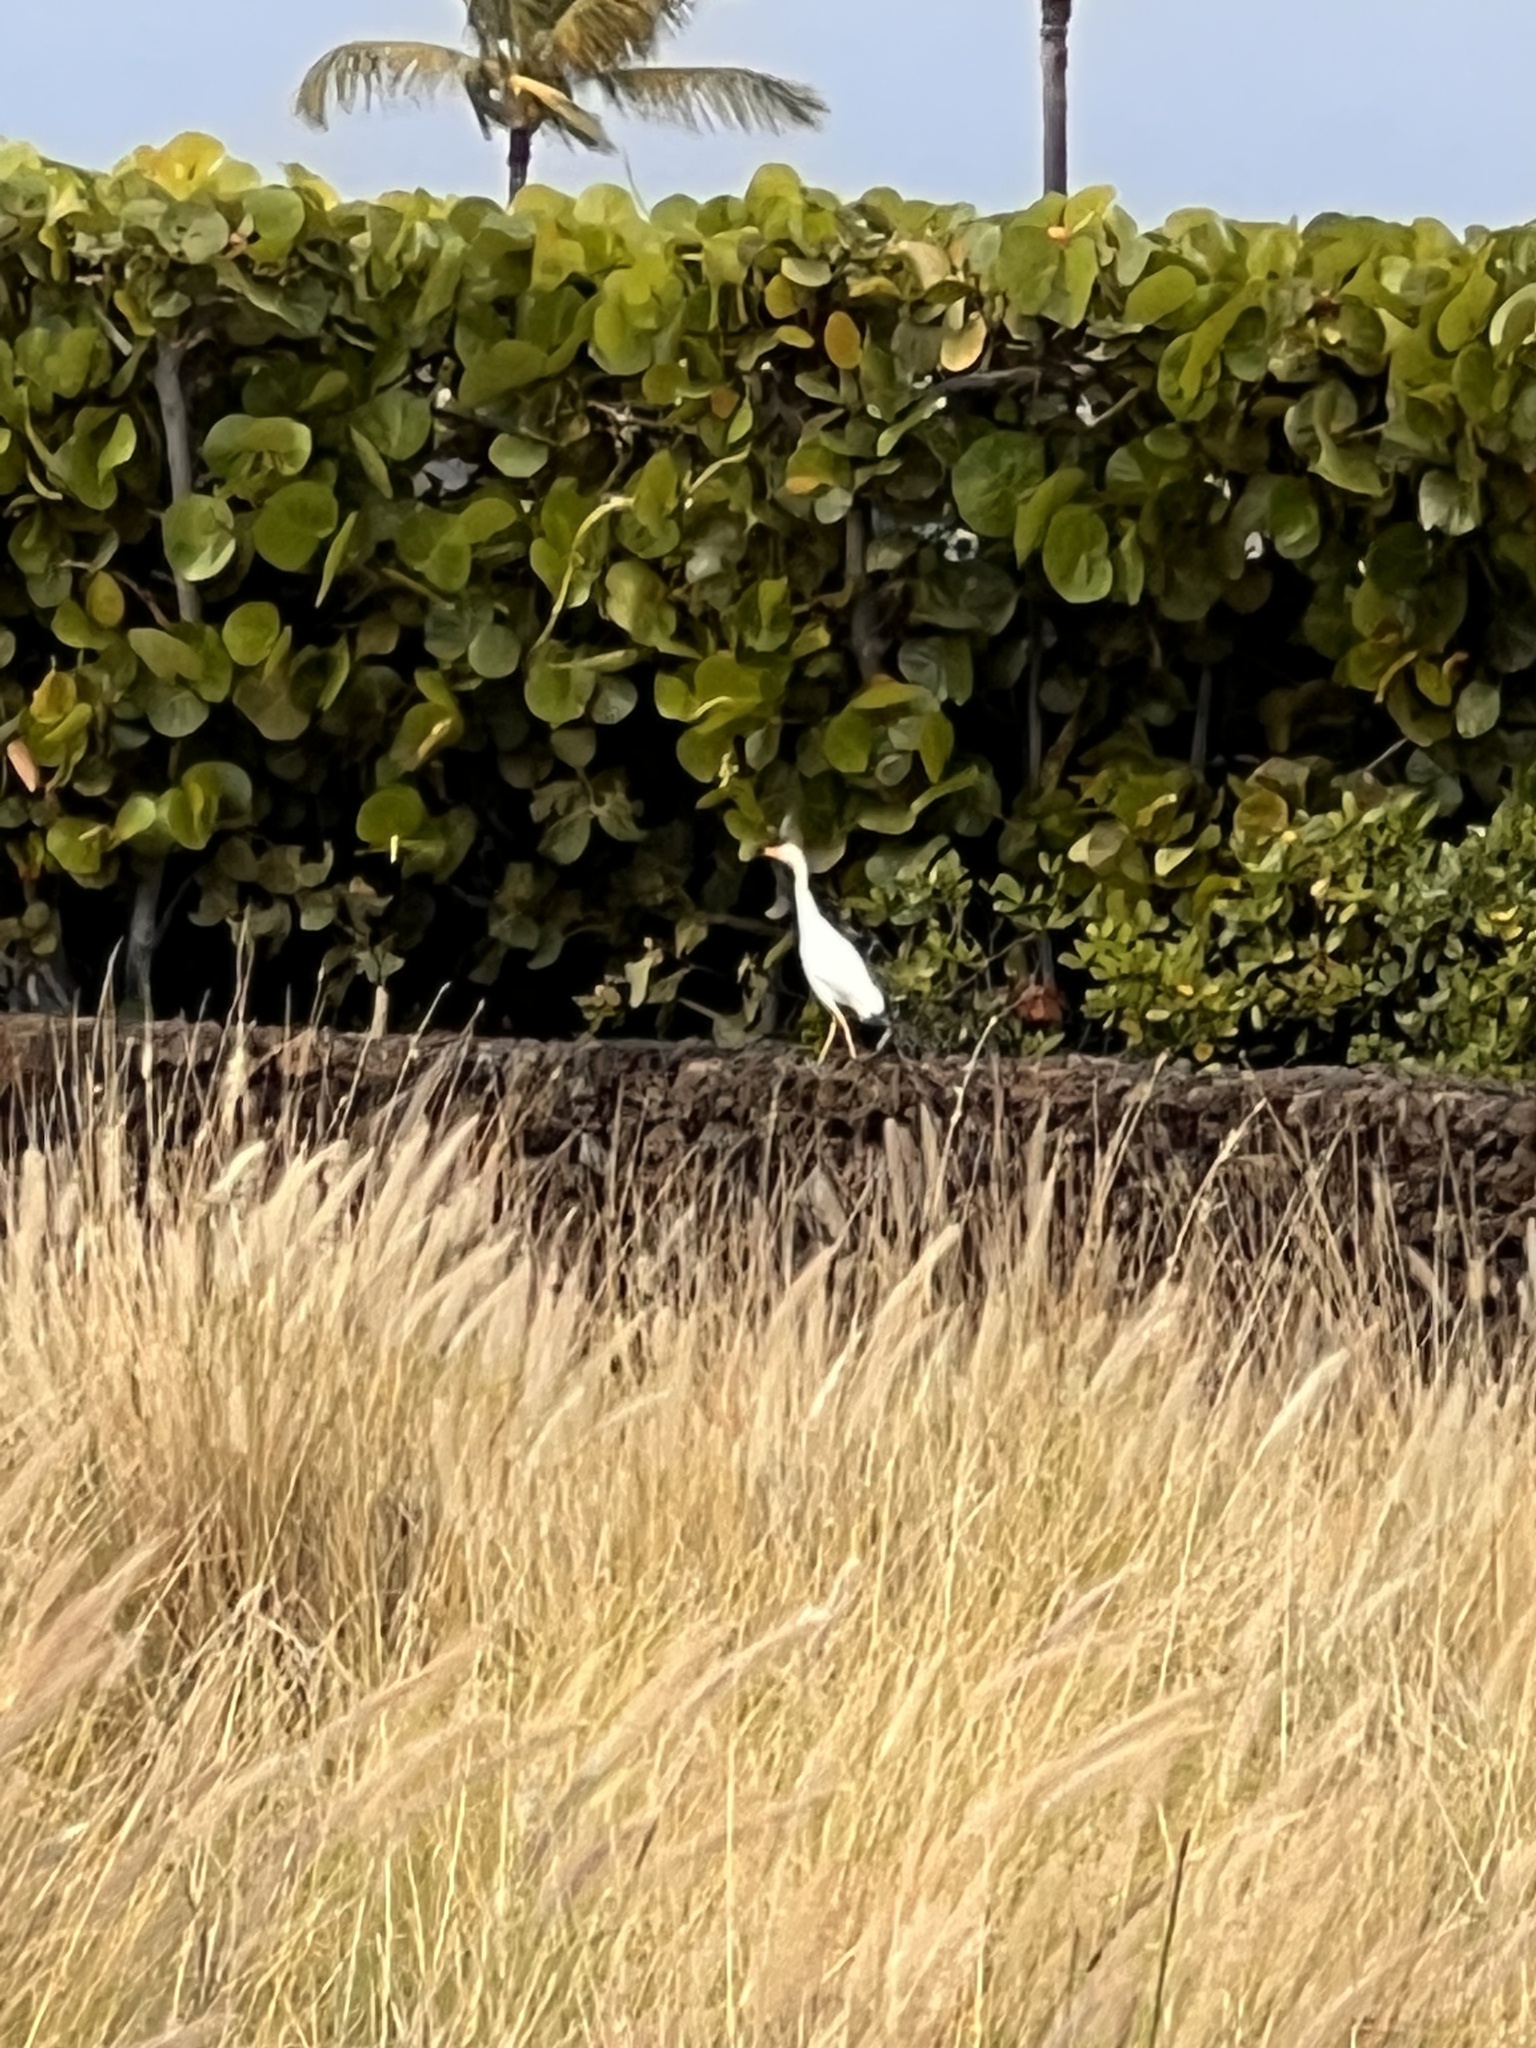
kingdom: Animalia
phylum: Chordata
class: Aves
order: Pelecaniformes
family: Ardeidae
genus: Bubulcus
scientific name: Bubulcus ibis
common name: Cattle egret
